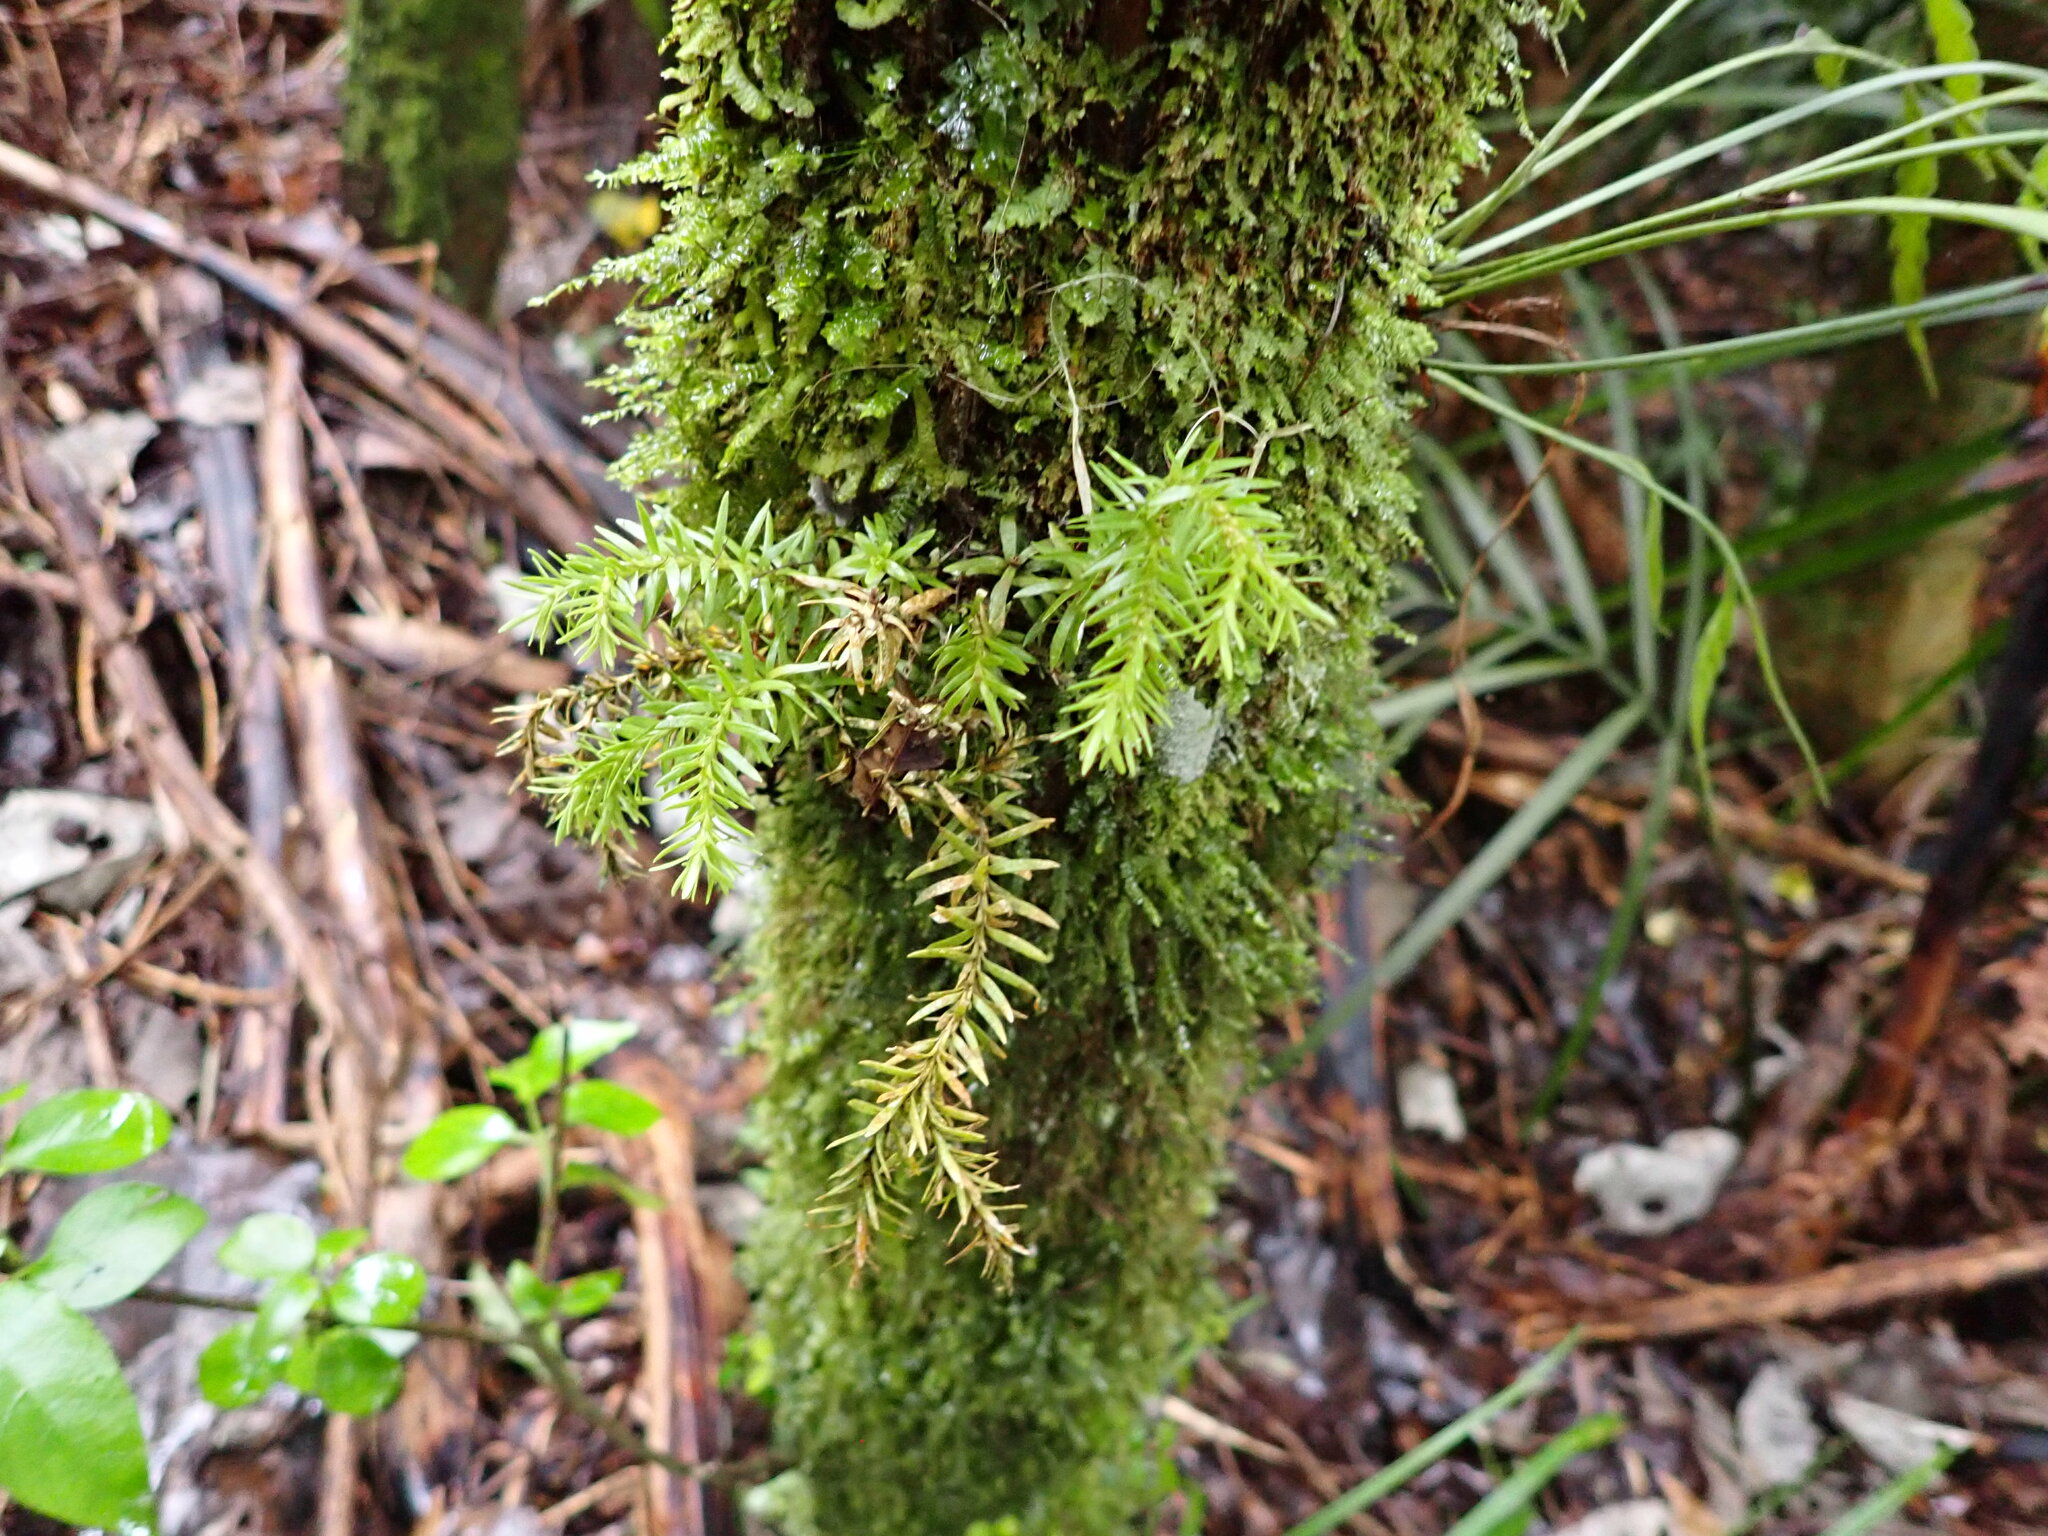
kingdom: Plantae
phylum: Tracheophyta
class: Lycopodiopsida
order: Lycopodiales
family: Lycopodiaceae
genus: Phlegmariurus
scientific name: Phlegmariurus varius
